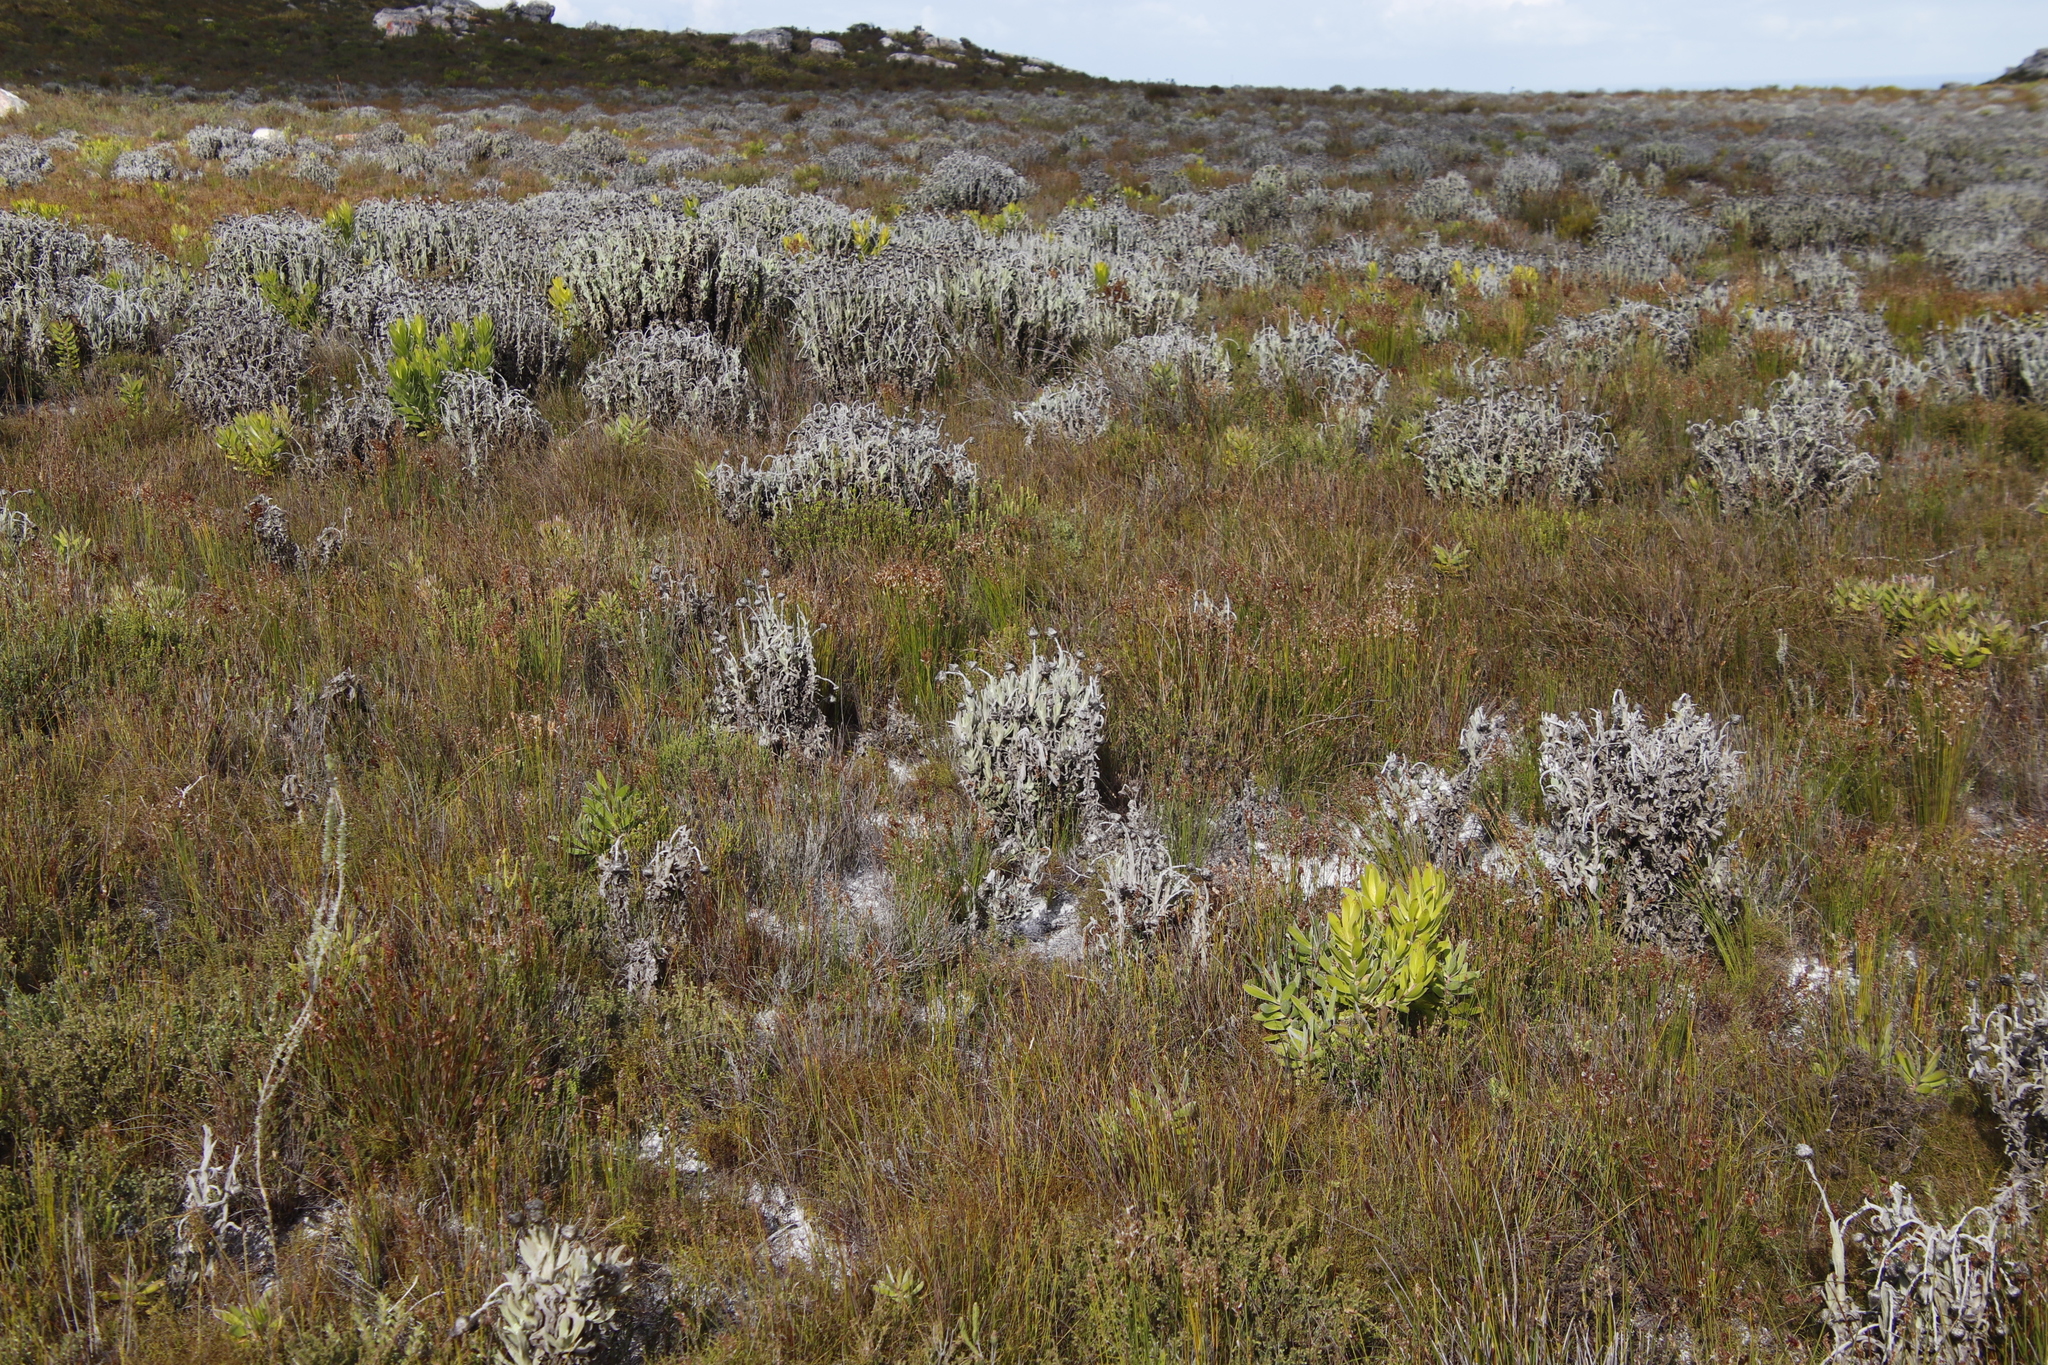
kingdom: Plantae
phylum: Tracheophyta
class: Magnoliopsida
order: Asterales
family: Asteraceae
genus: Syncarpha
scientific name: Syncarpha vestita
